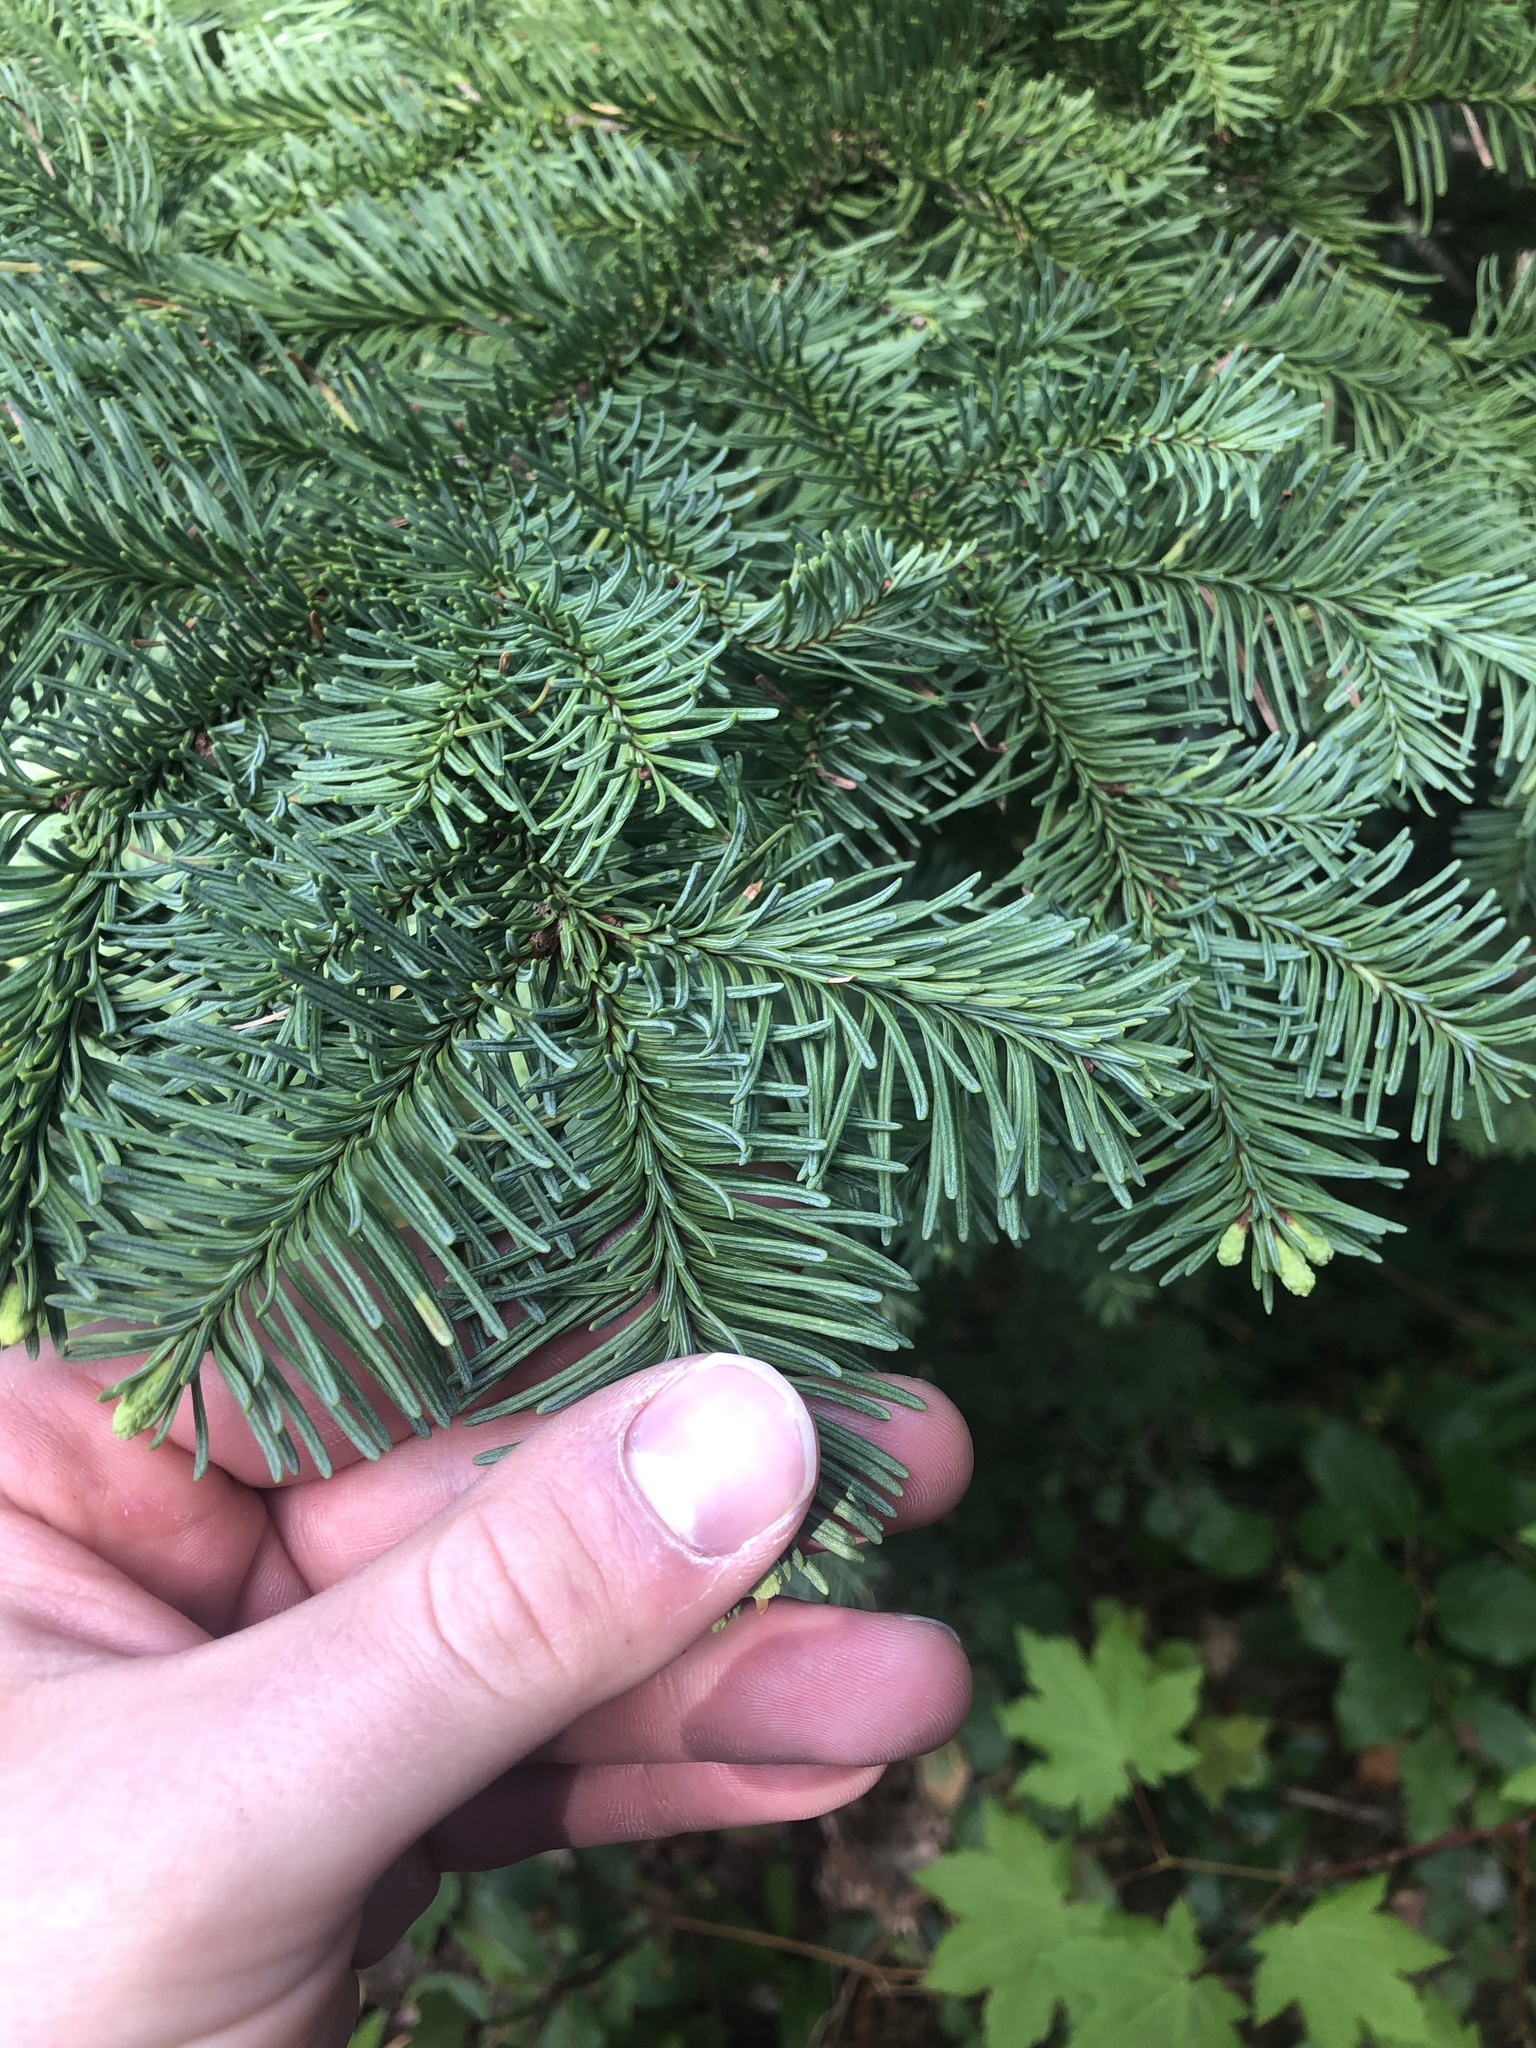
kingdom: Plantae
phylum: Tracheophyta
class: Pinopsida
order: Pinales
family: Pinaceae
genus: Abies
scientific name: Abies procera
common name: Noble fir
